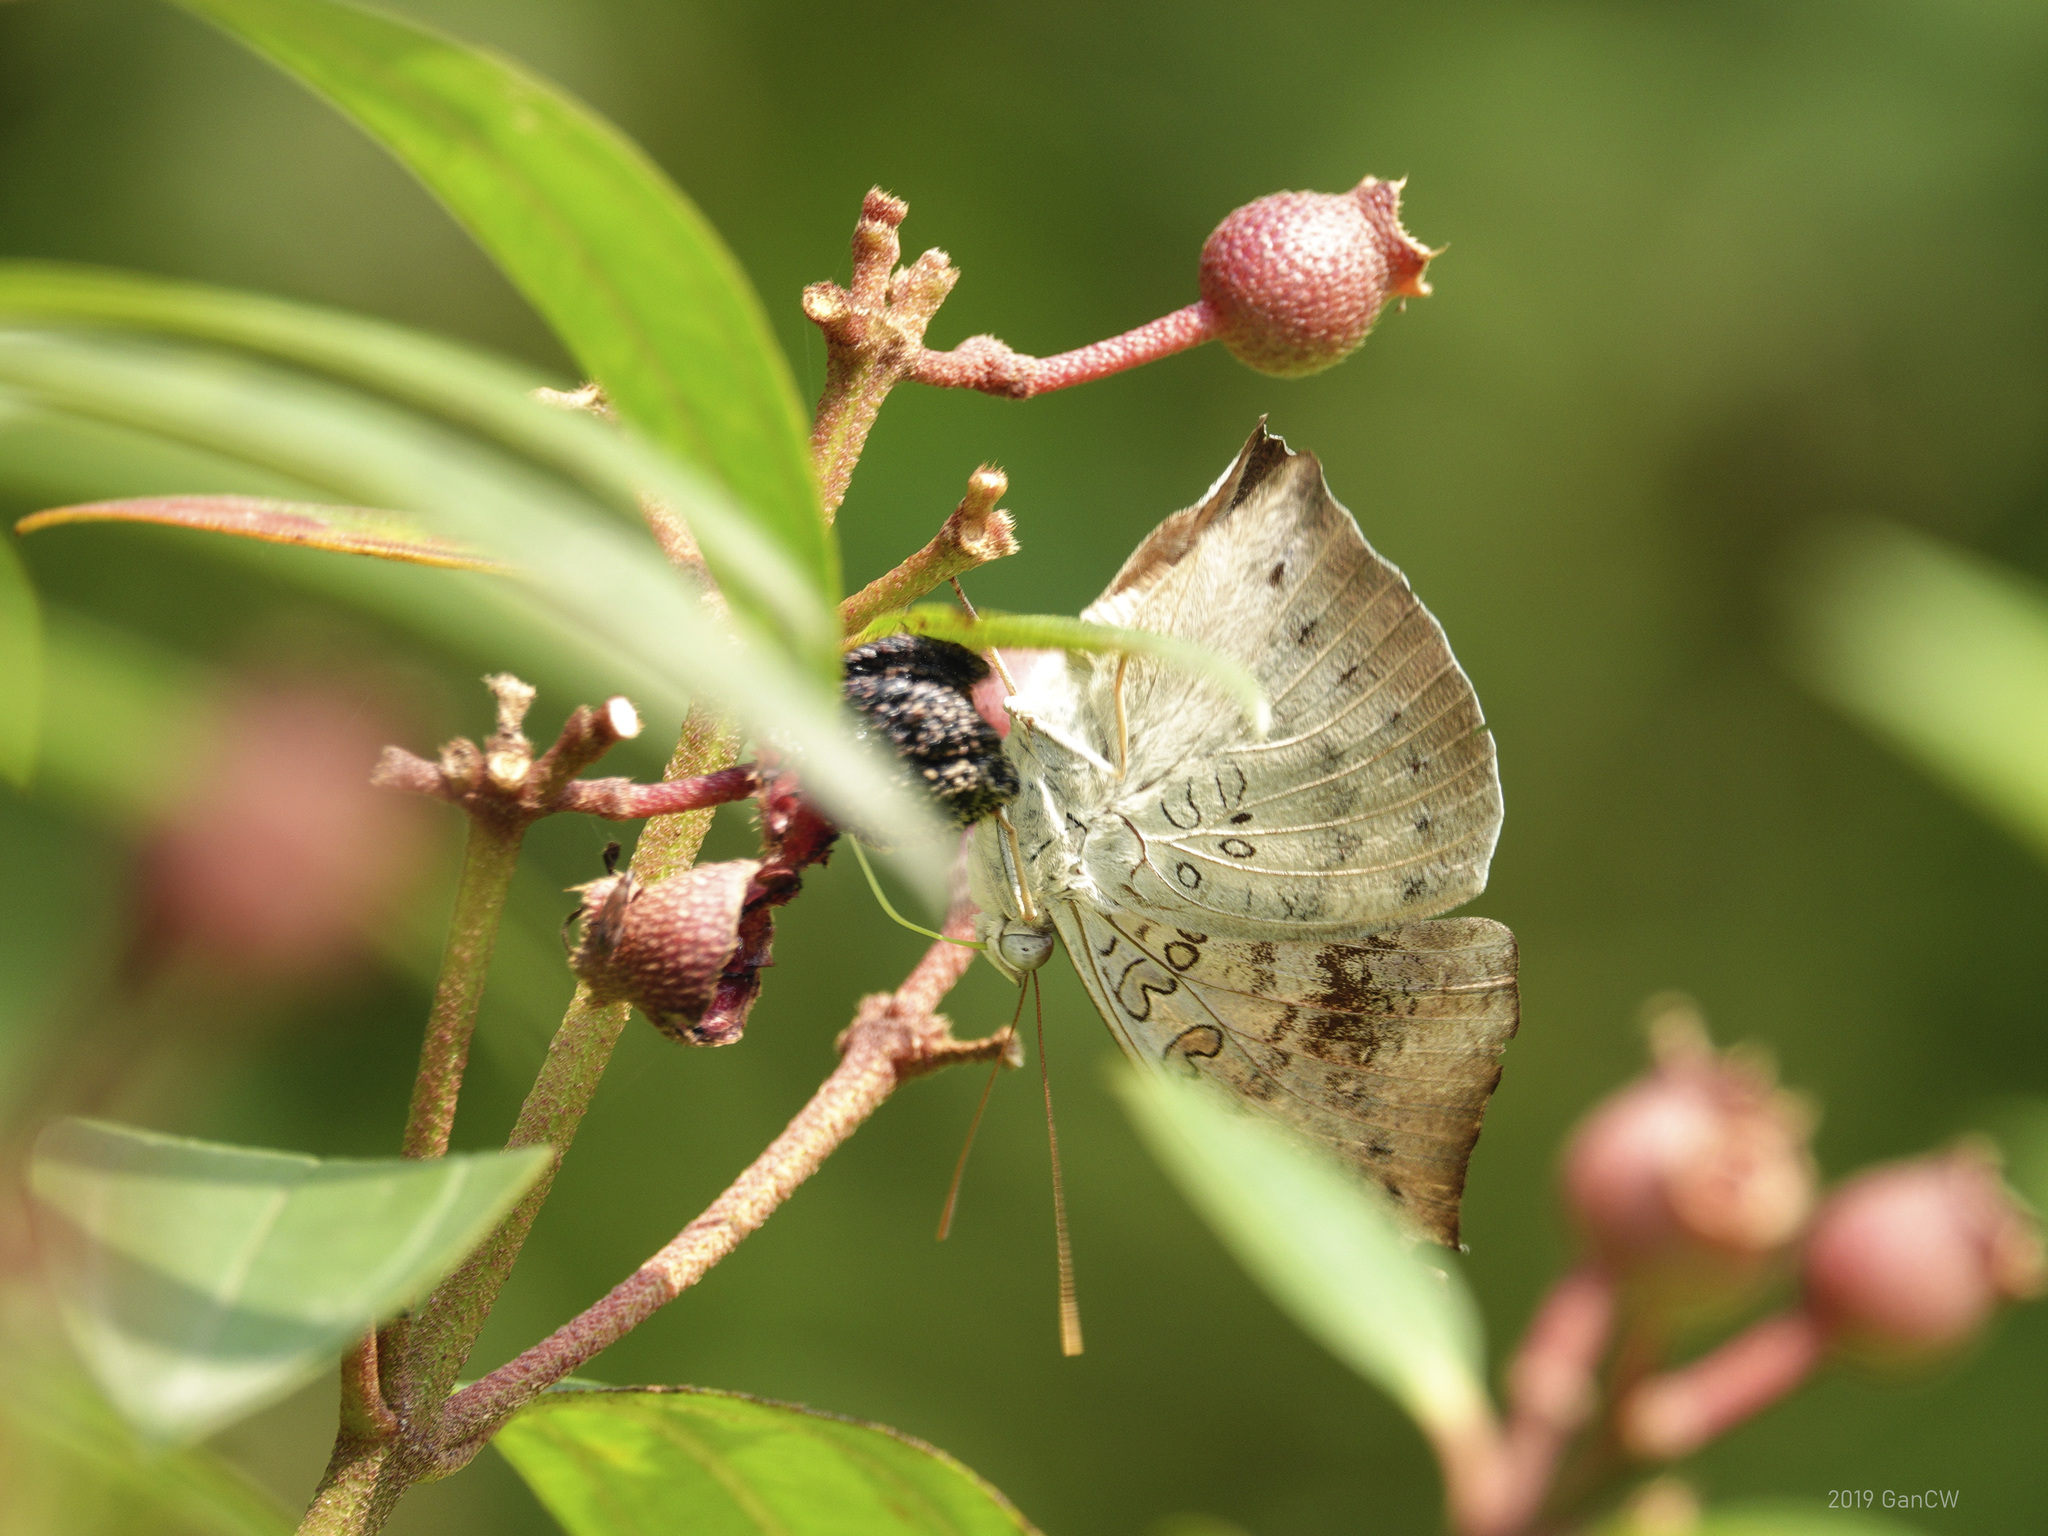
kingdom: Animalia
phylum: Arthropoda
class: Insecta
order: Lepidoptera
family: Nymphalidae
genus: Euthalia
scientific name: Euthalia anosia
